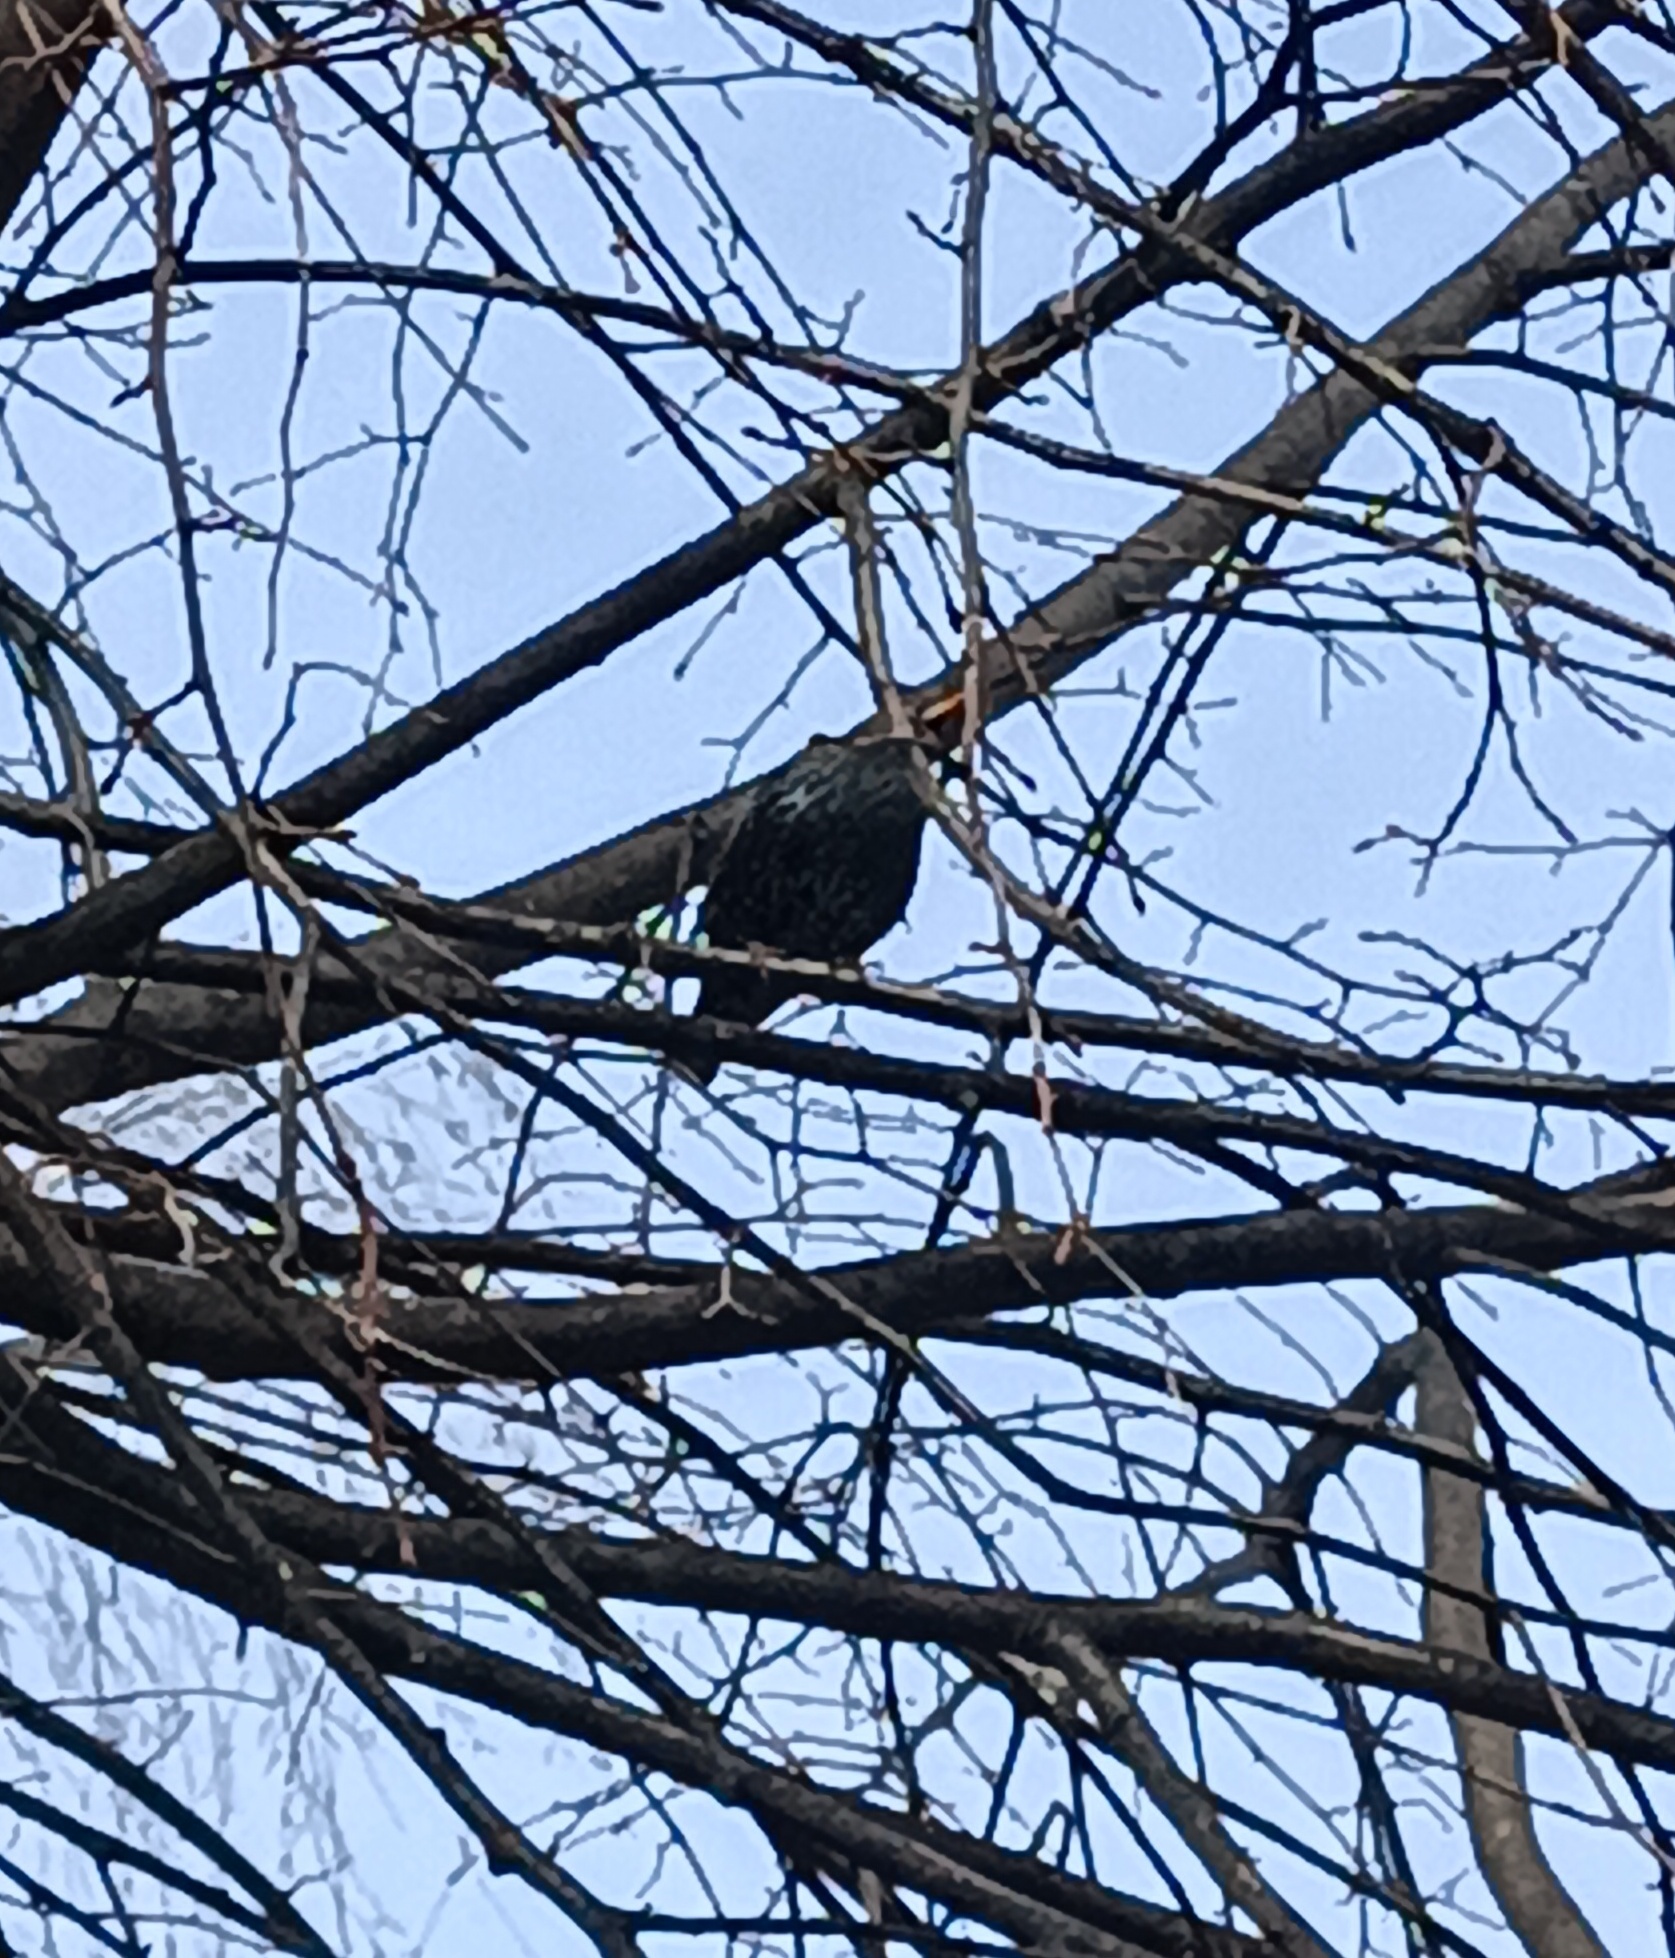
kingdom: Animalia
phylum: Chordata
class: Aves
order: Passeriformes
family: Sturnidae
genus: Sturnus
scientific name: Sturnus vulgaris
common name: Common starling
